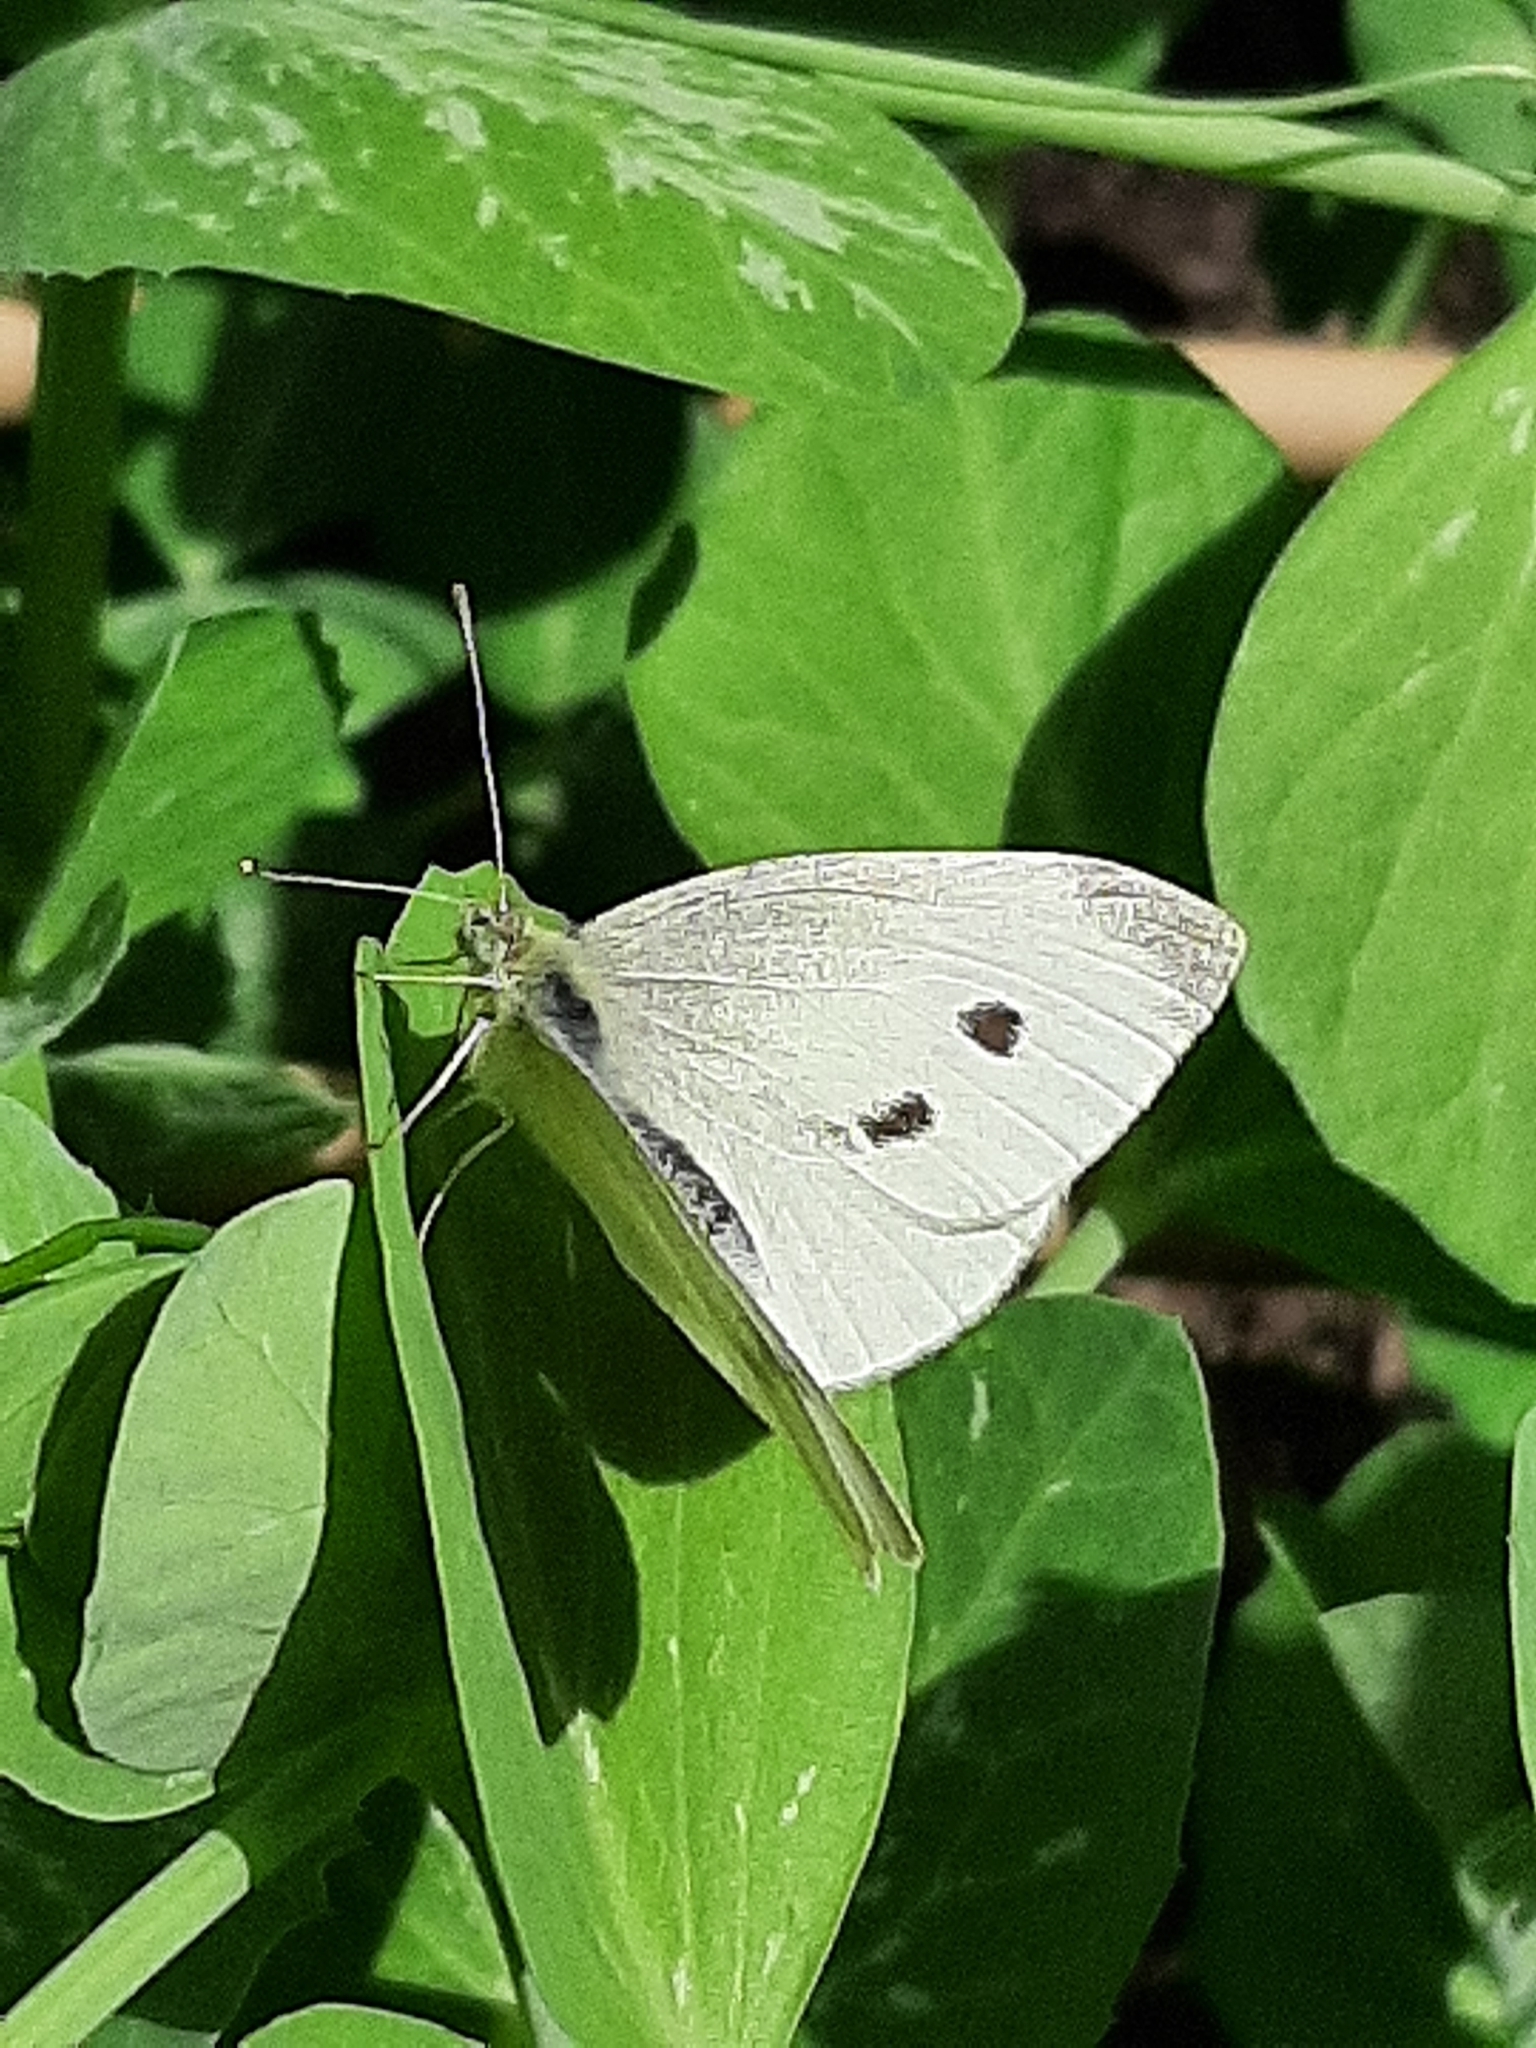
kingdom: Animalia
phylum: Arthropoda
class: Insecta
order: Lepidoptera
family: Pieridae
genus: Pieris
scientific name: Pieris rapae
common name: Small white
